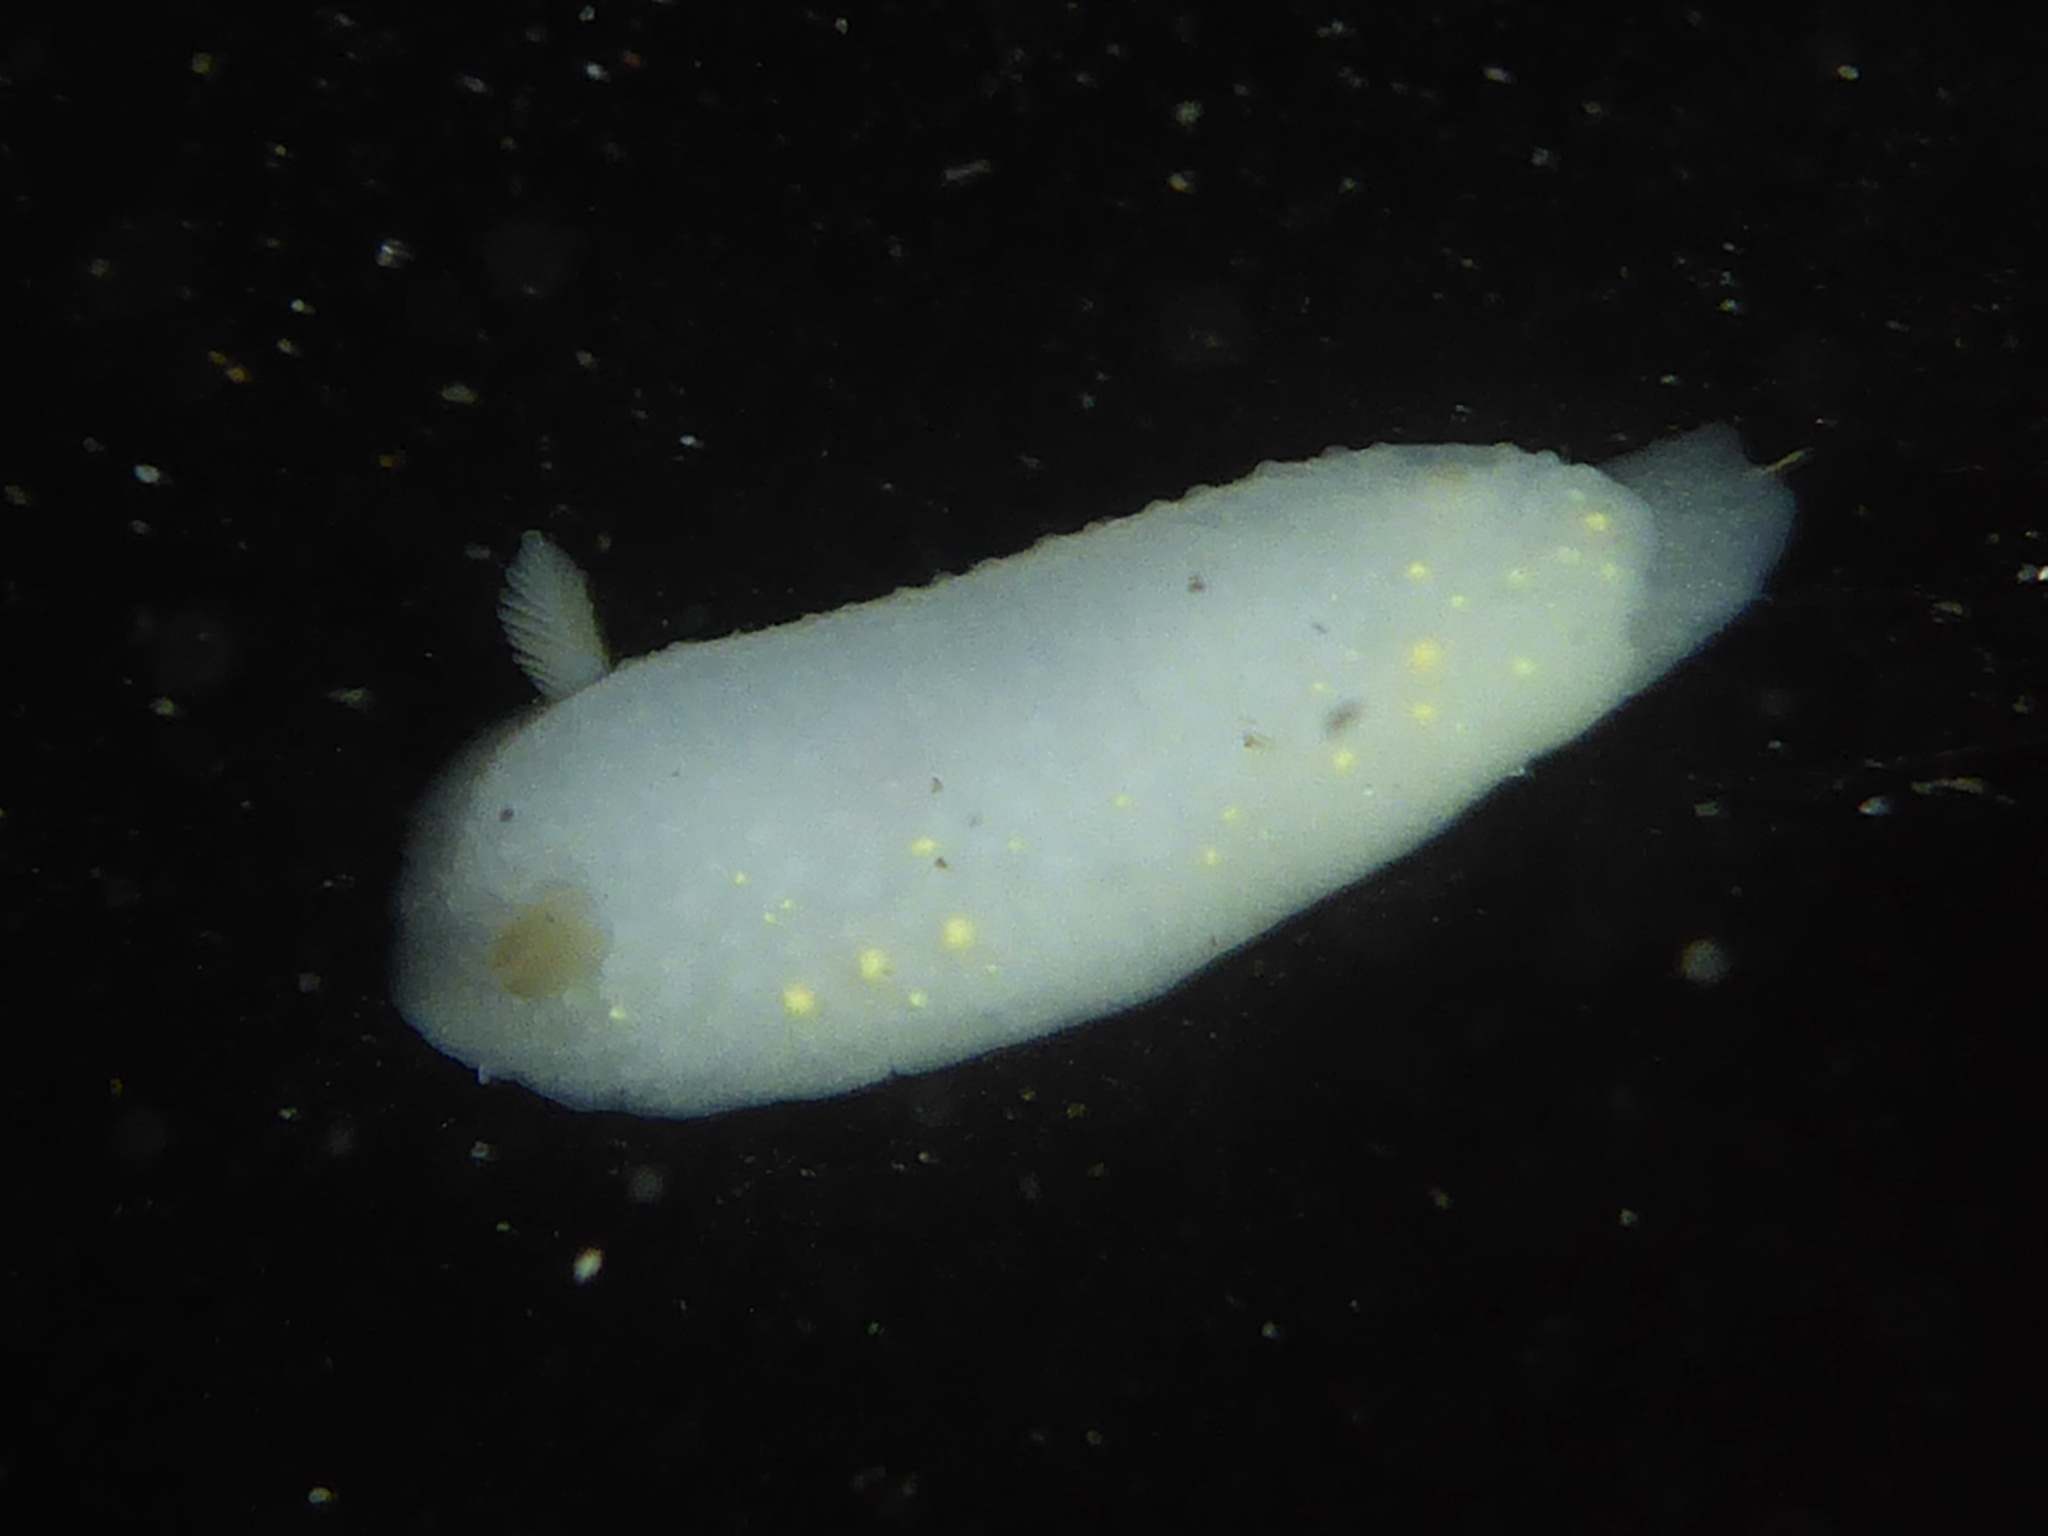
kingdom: Animalia
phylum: Mollusca
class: Gastropoda
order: Nudibranchia
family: Cadlinidae
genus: Cadlina
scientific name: Cadlina modesta
